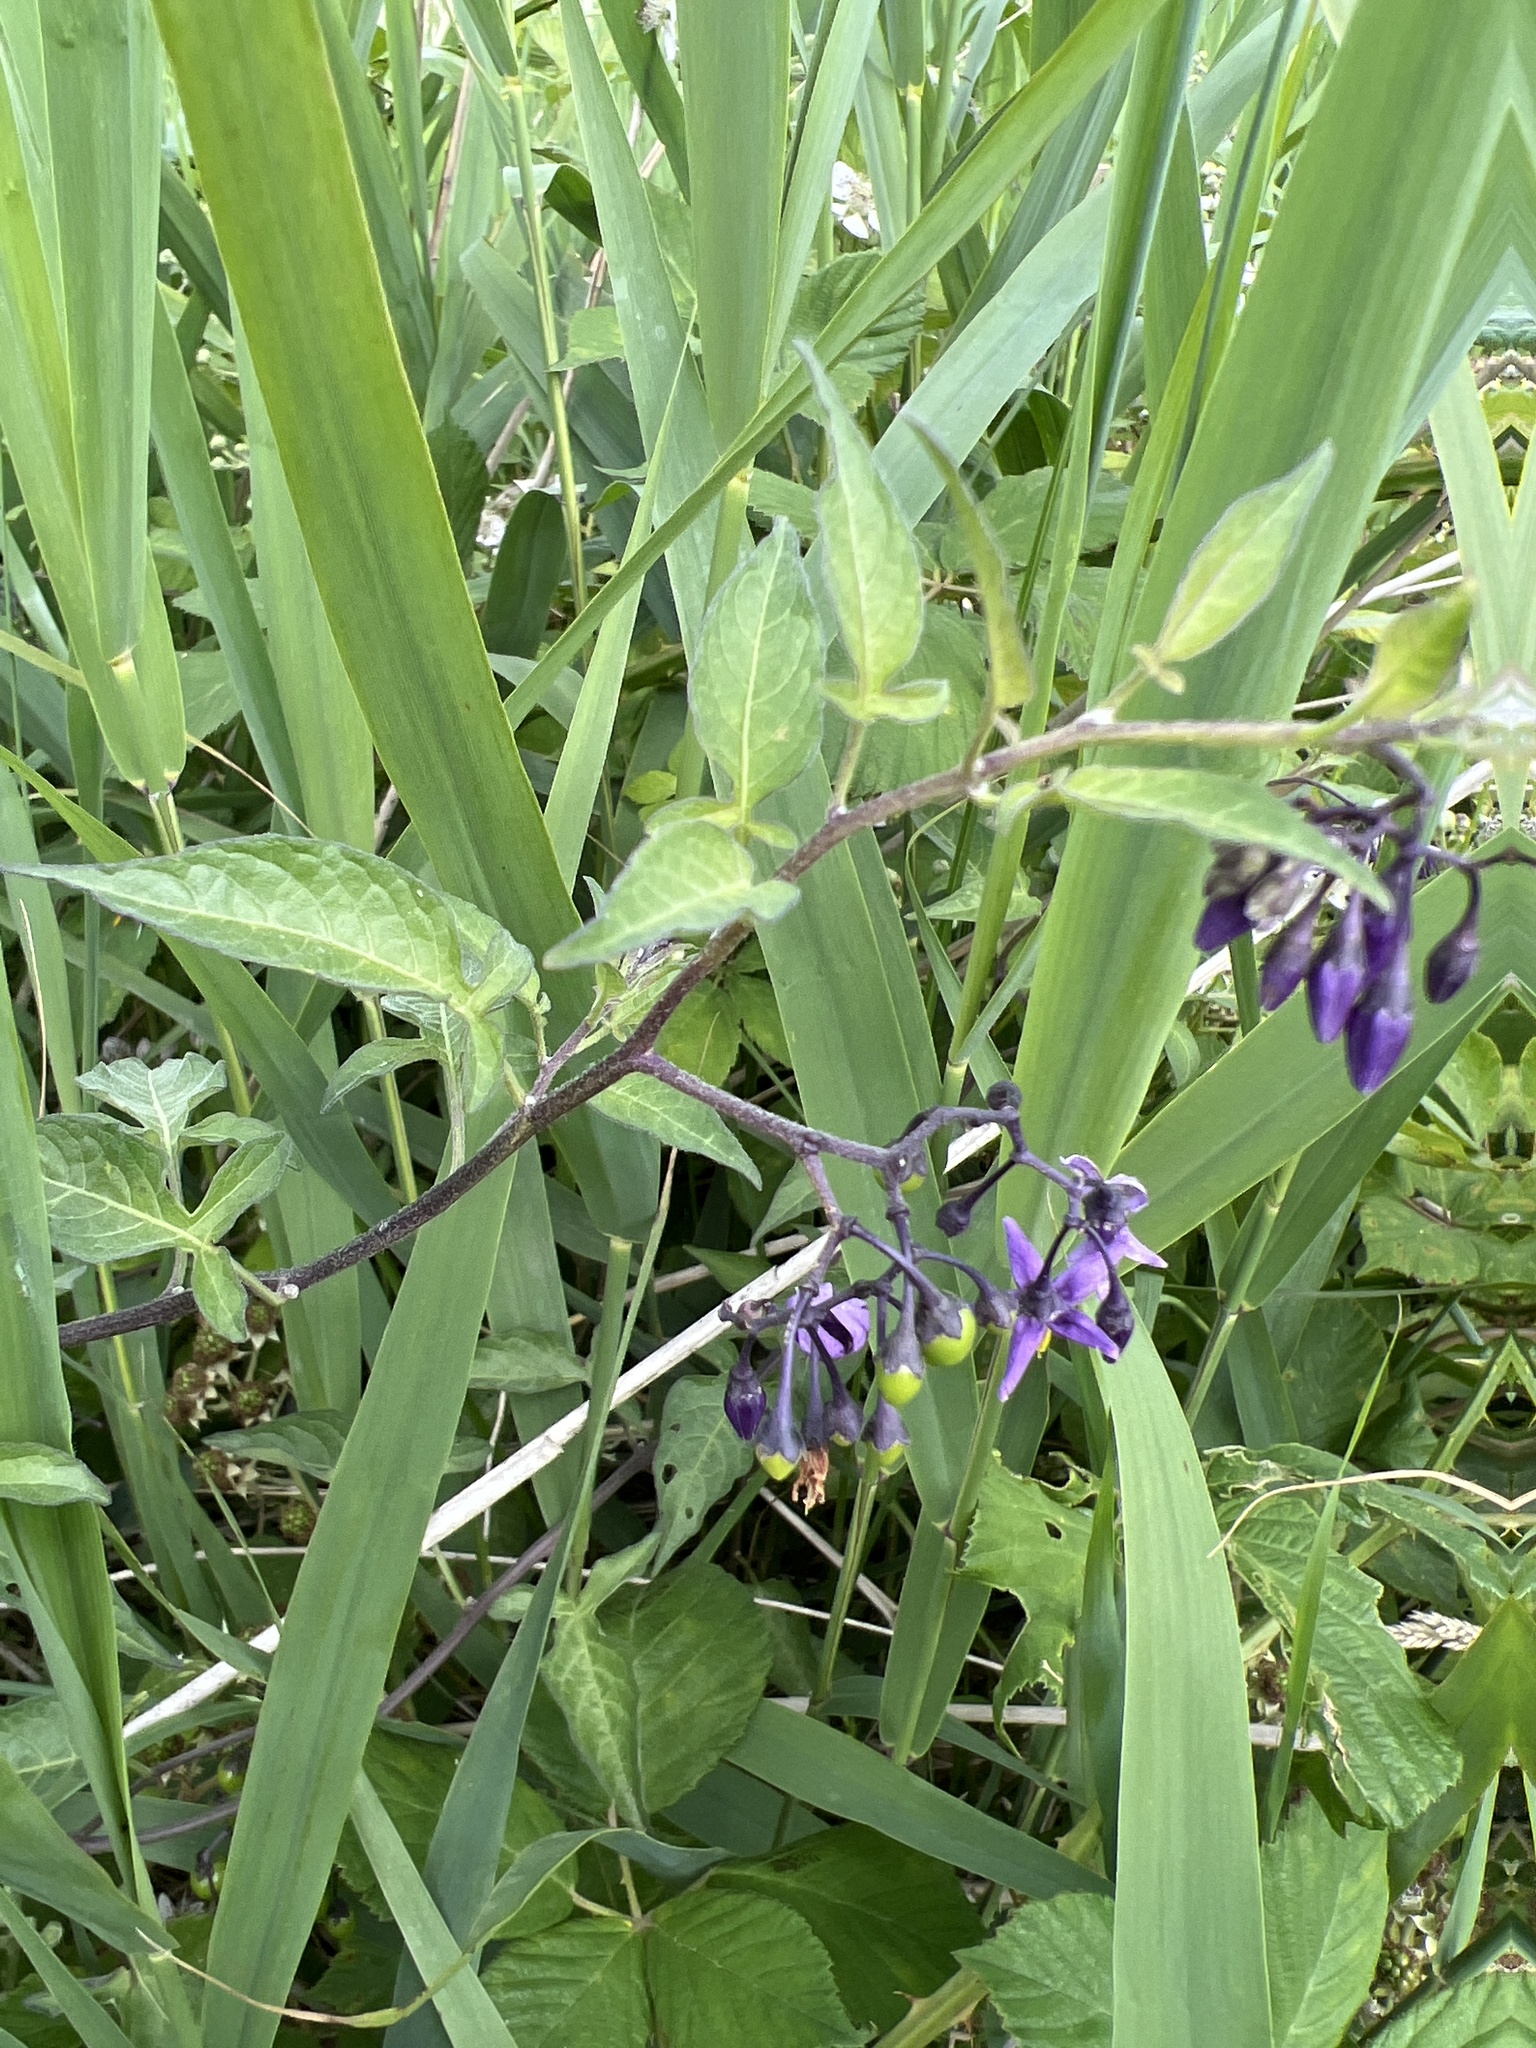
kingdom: Plantae
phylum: Tracheophyta
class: Magnoliopsida
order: Solanales
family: Solanaceae
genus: Solanum
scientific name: Solanum dulcamara
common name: Climbing nightshade
